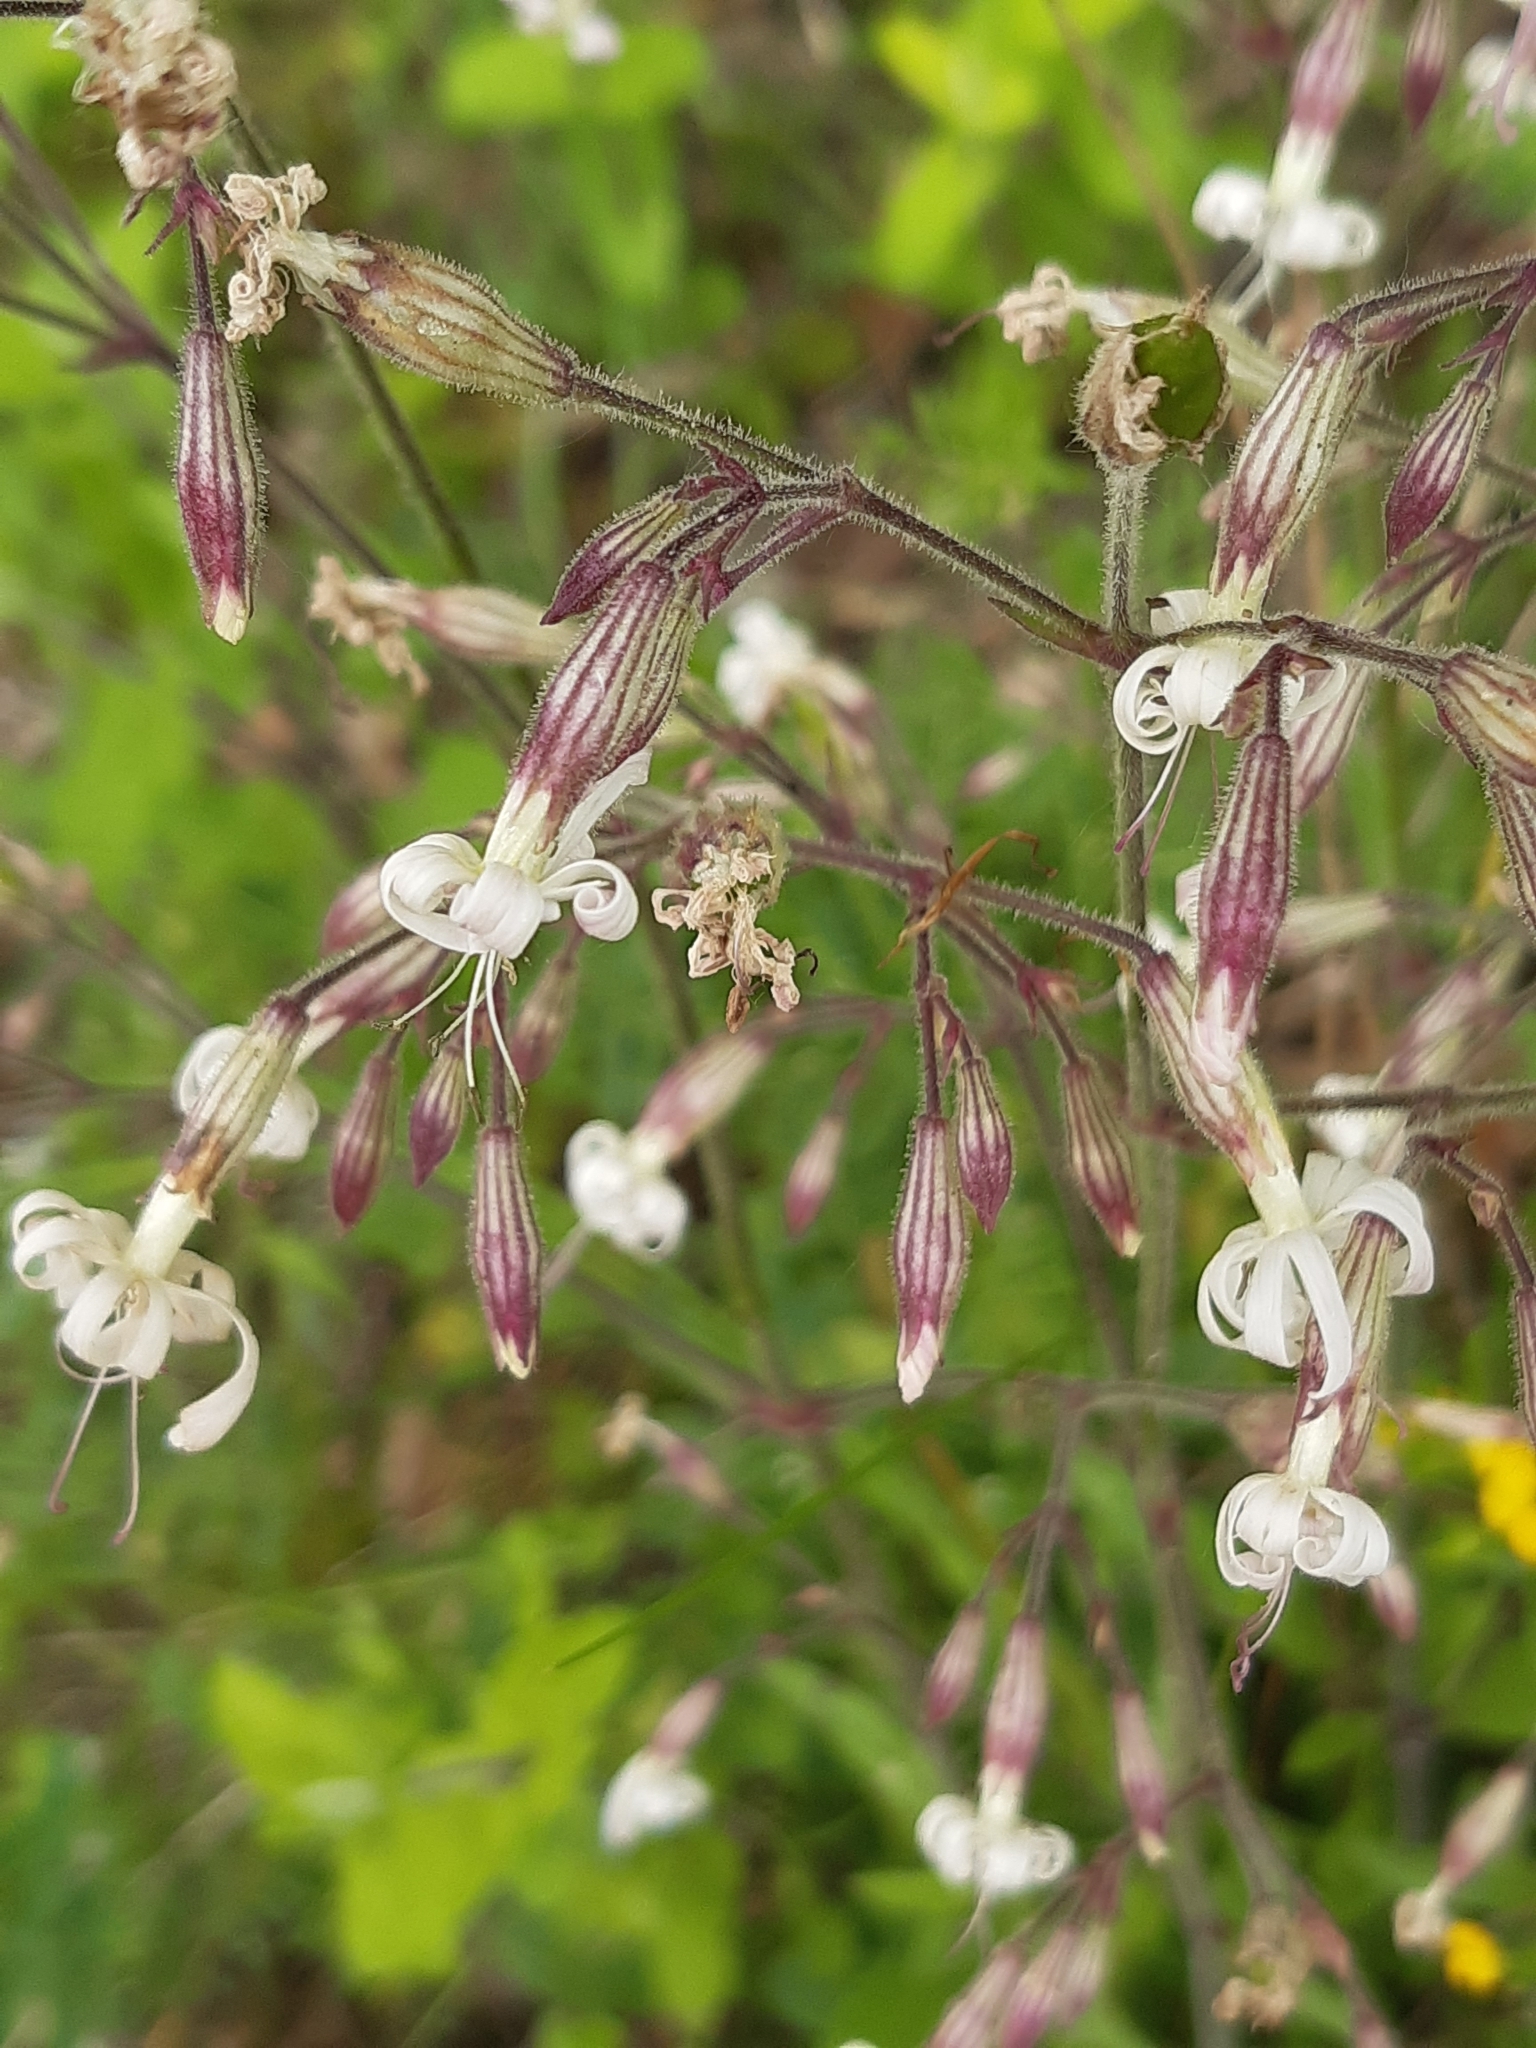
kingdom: Plantae
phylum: Tracheophyta
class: Magnoliopsida
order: Caryophyllales
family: Caryophyllaceae
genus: Silene
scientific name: Silene nutans
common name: Nottingham catchfly
